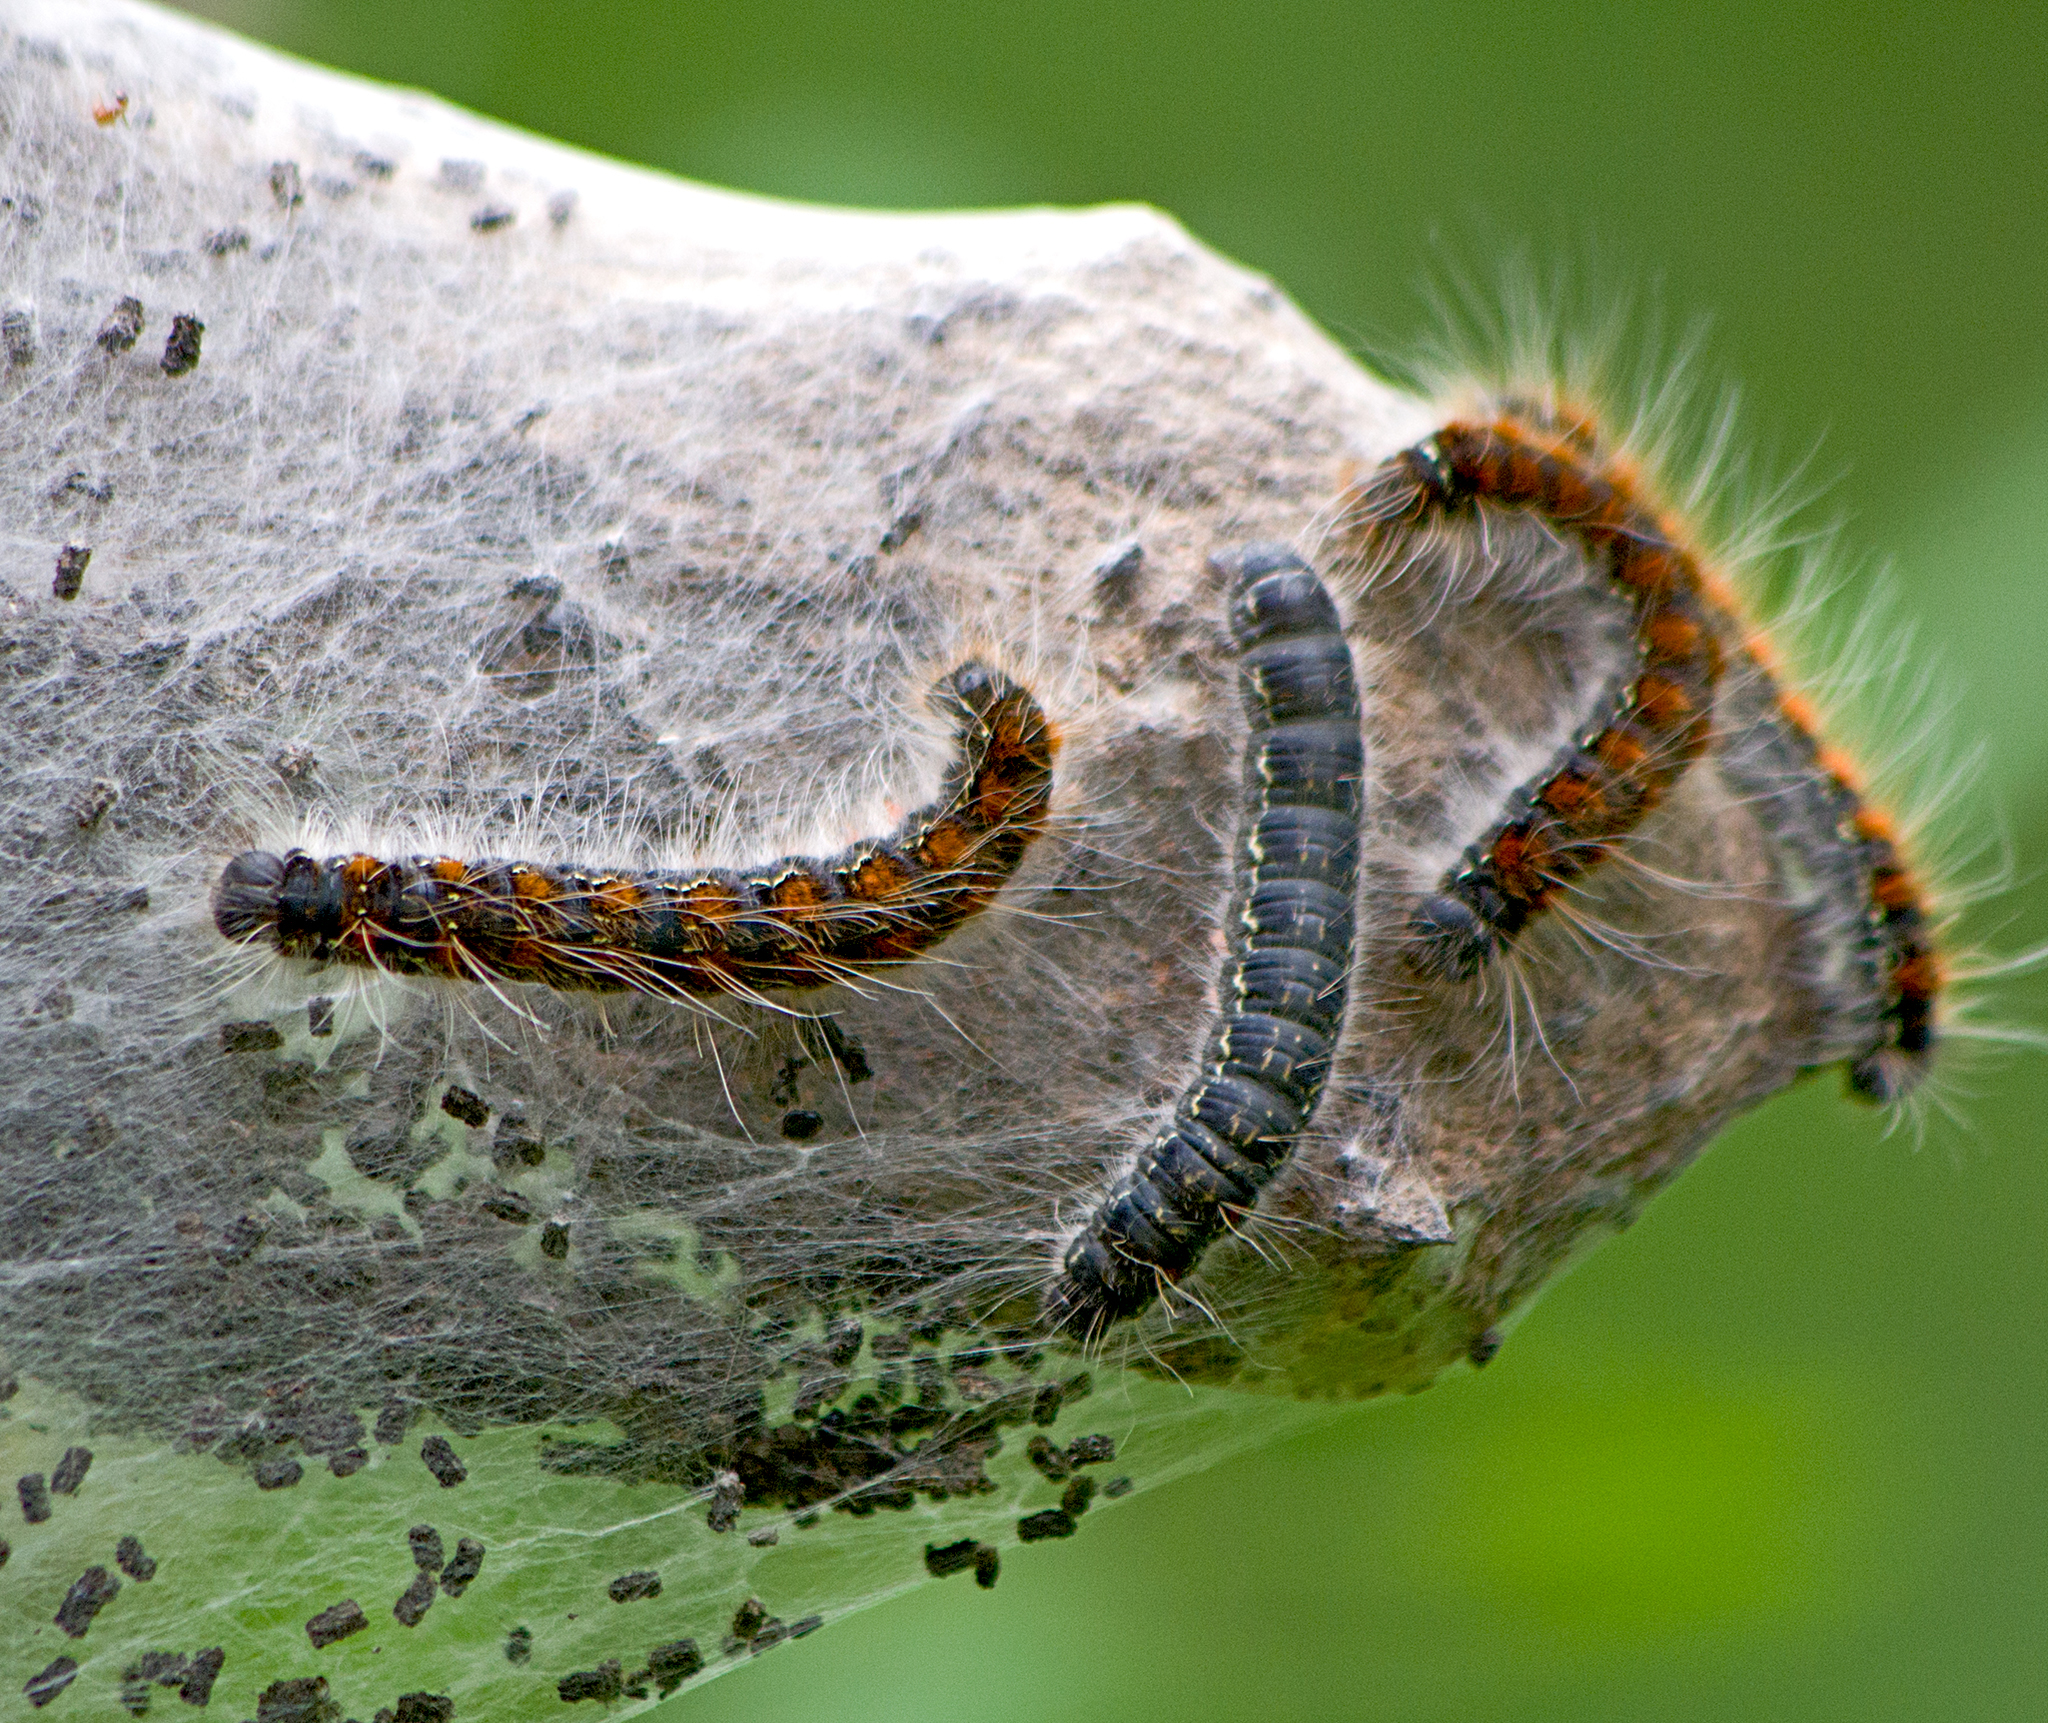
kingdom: Animalia
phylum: Arthropoda
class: Insecta
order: Lepidoptera
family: Lasiocampidae
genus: Eriogaster
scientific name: Eriogaster lanestris
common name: Small eggar
